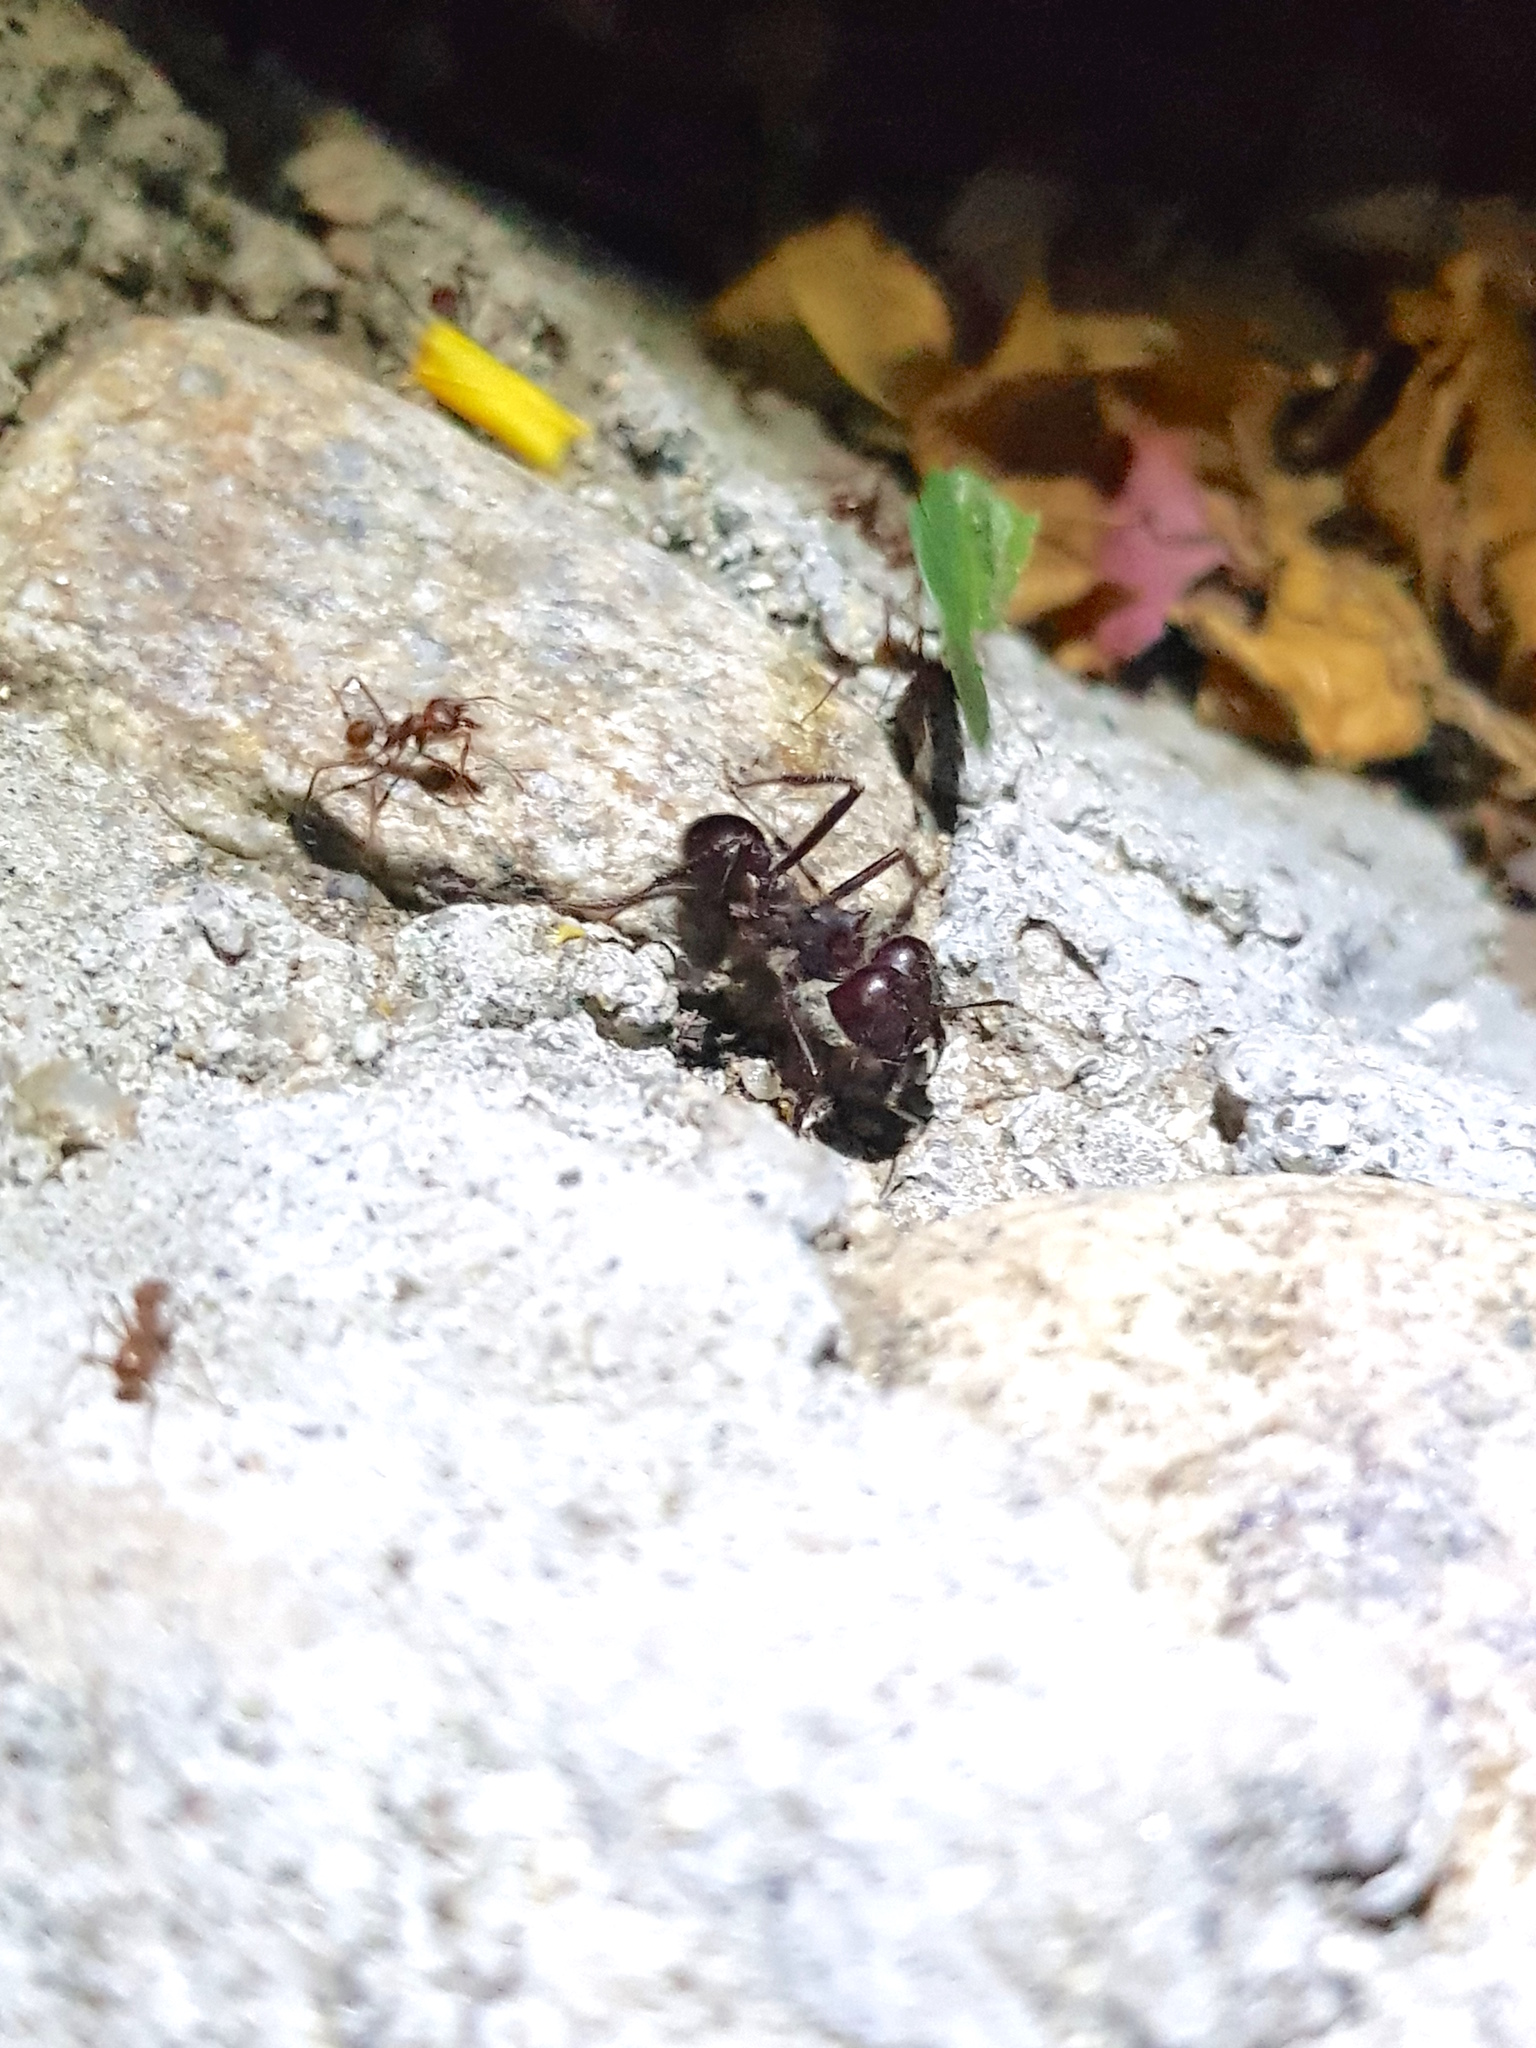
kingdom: Animalia
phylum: Arthropoda
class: Insecta
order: Hymenoptera
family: Formicidae
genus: Atta
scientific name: Atta mexicana
